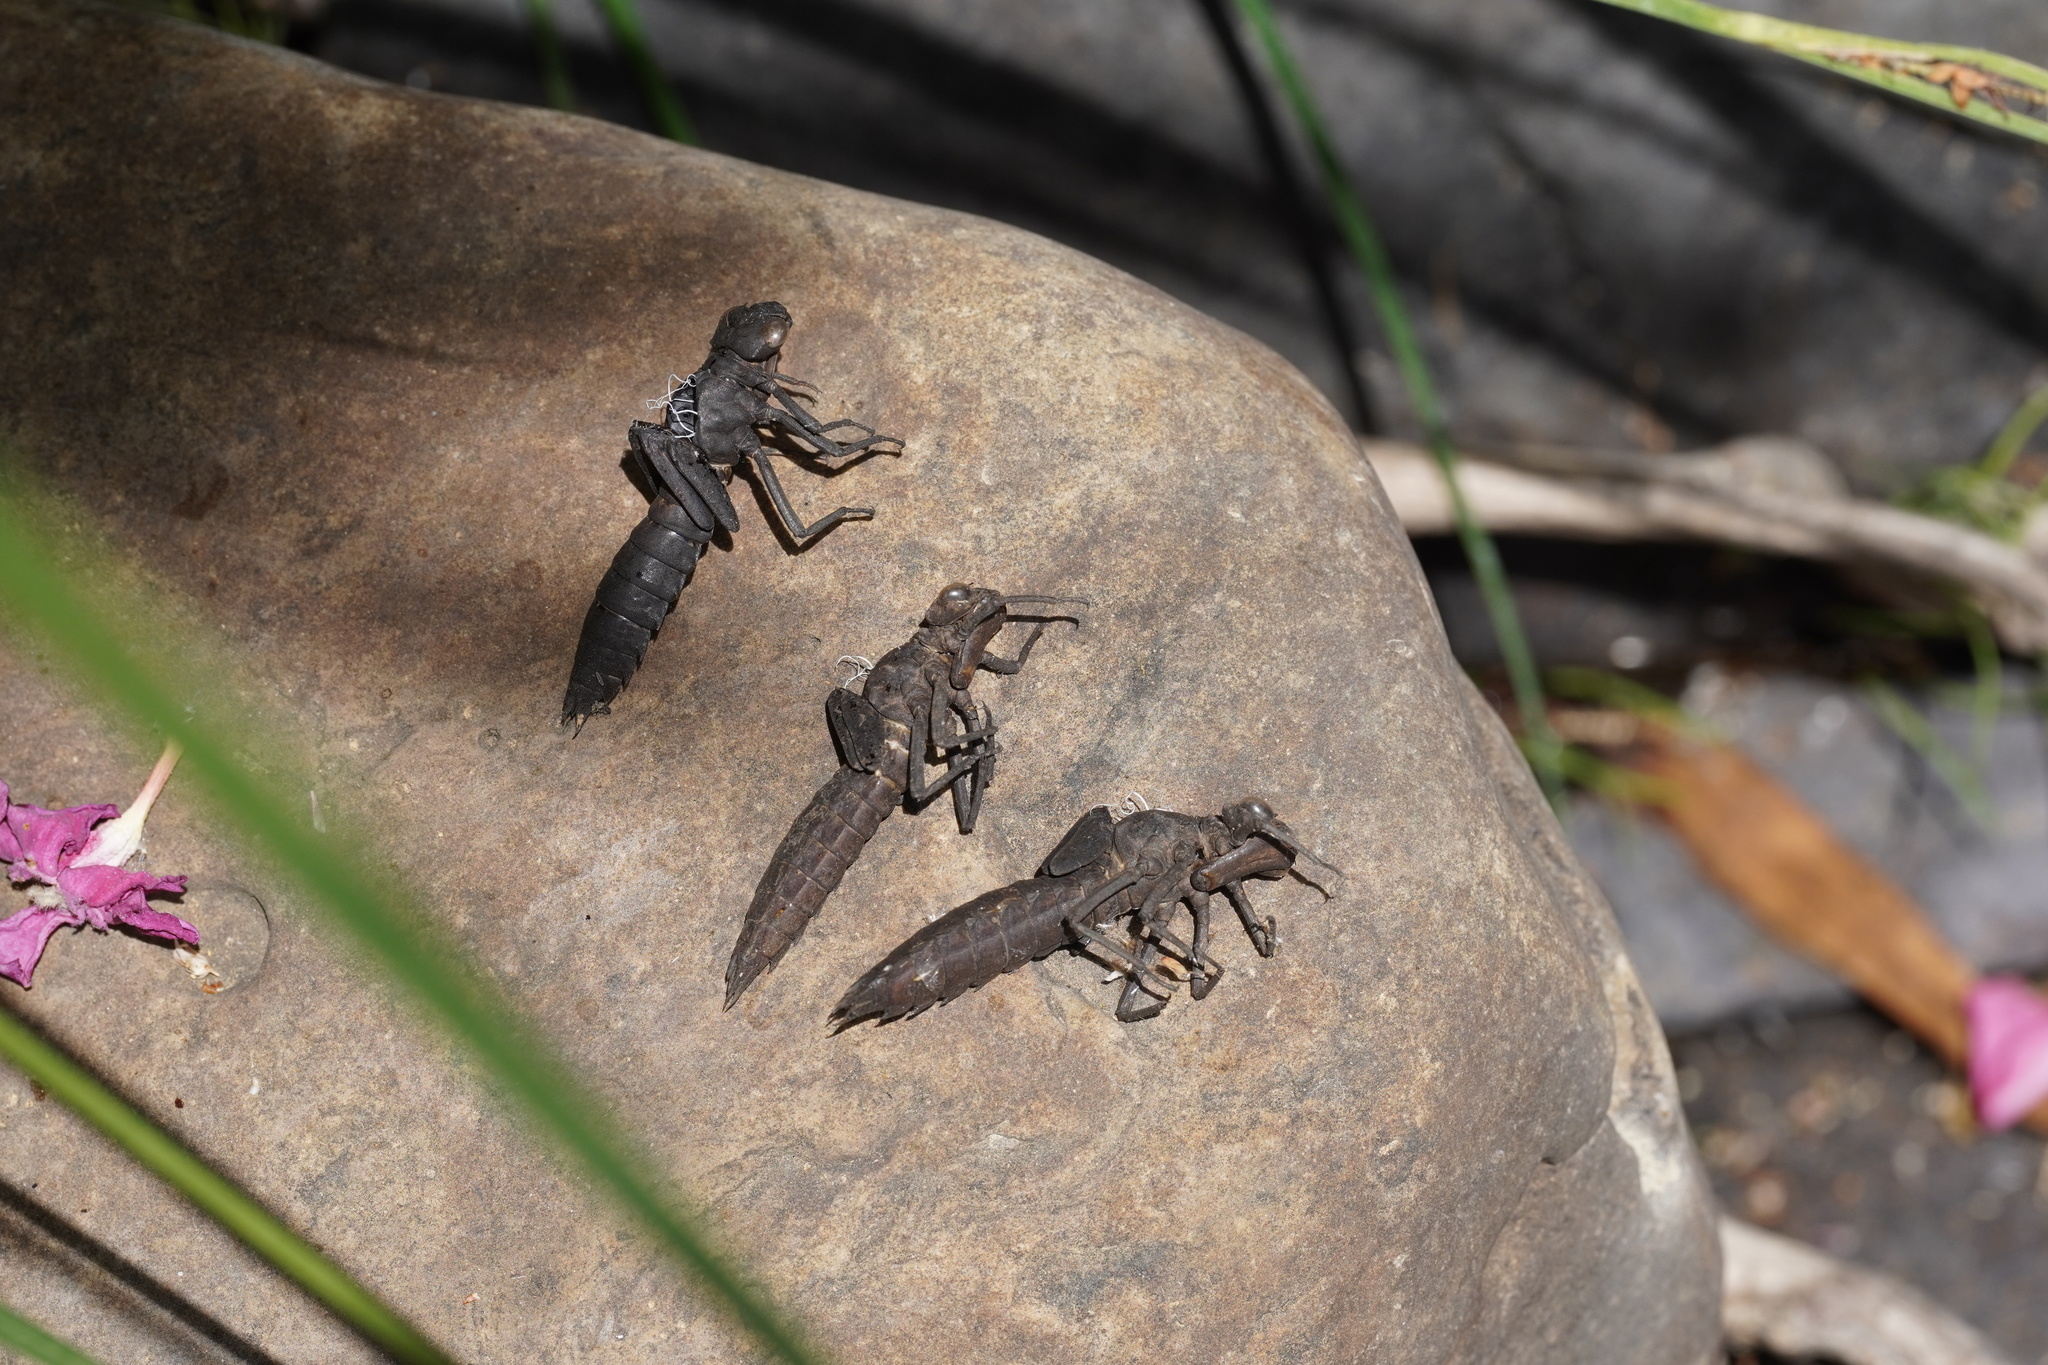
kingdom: Animalia
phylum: Arthropoda
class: Insecta
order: Odonata
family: Aeshnidae
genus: Boyeria
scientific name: Boyeria irene
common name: Western spectre
